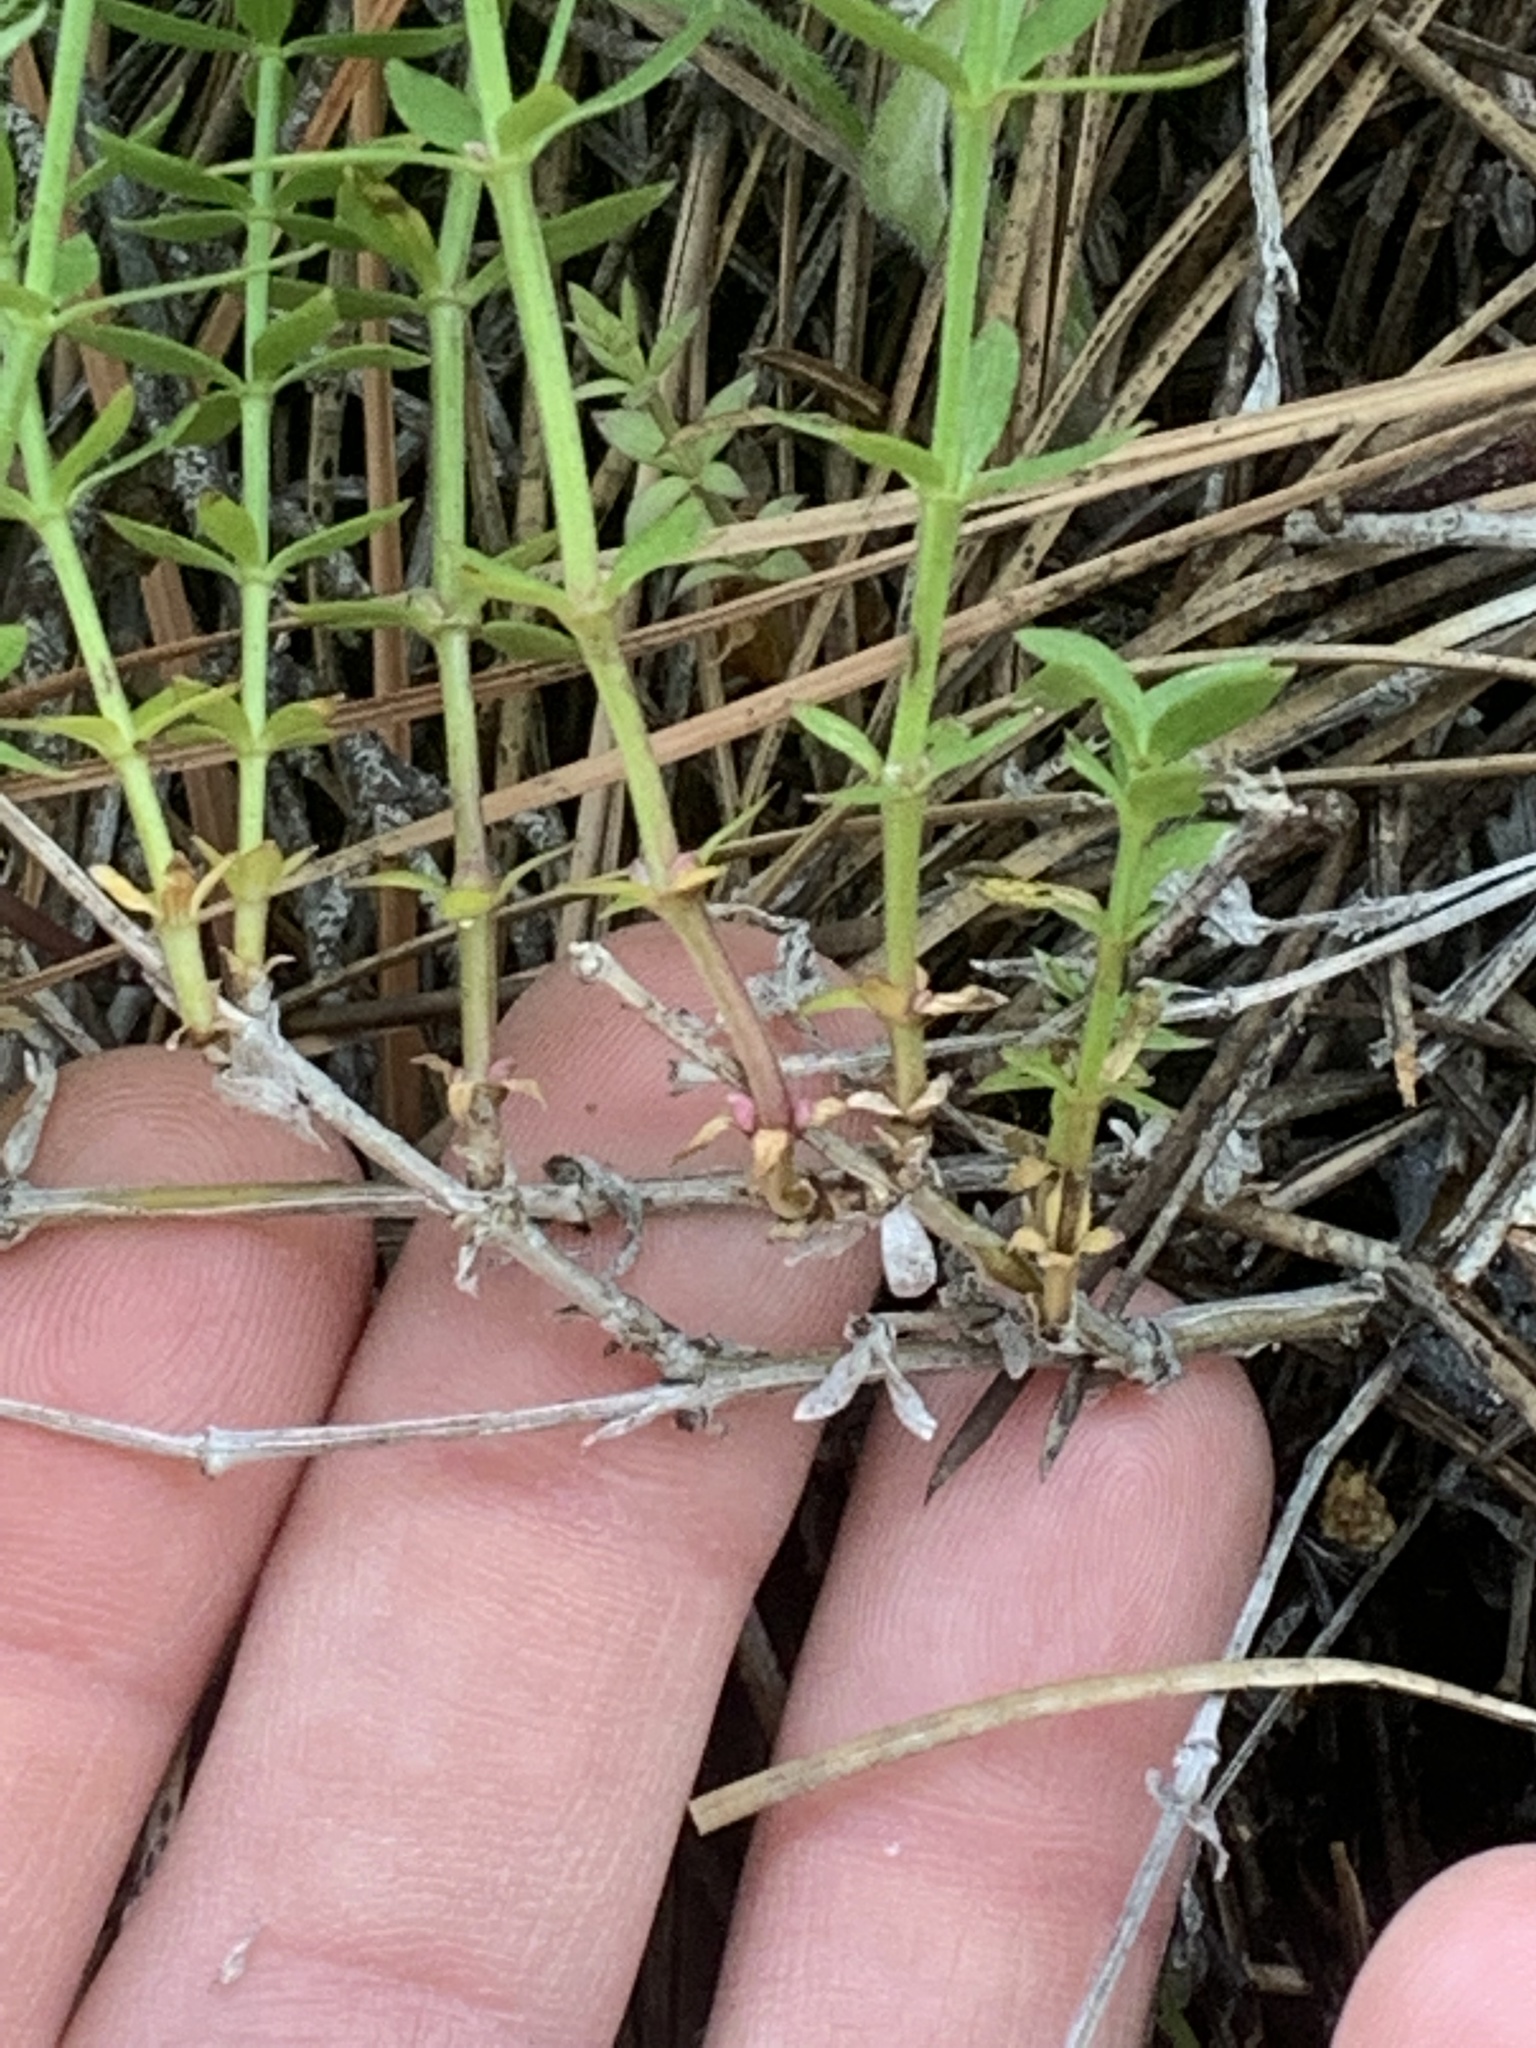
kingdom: Plantae
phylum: Tracheophyta
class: Magnoliopsida
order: Gentianales
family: Rubiaceae
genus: Galium
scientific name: Galium serpenticum
